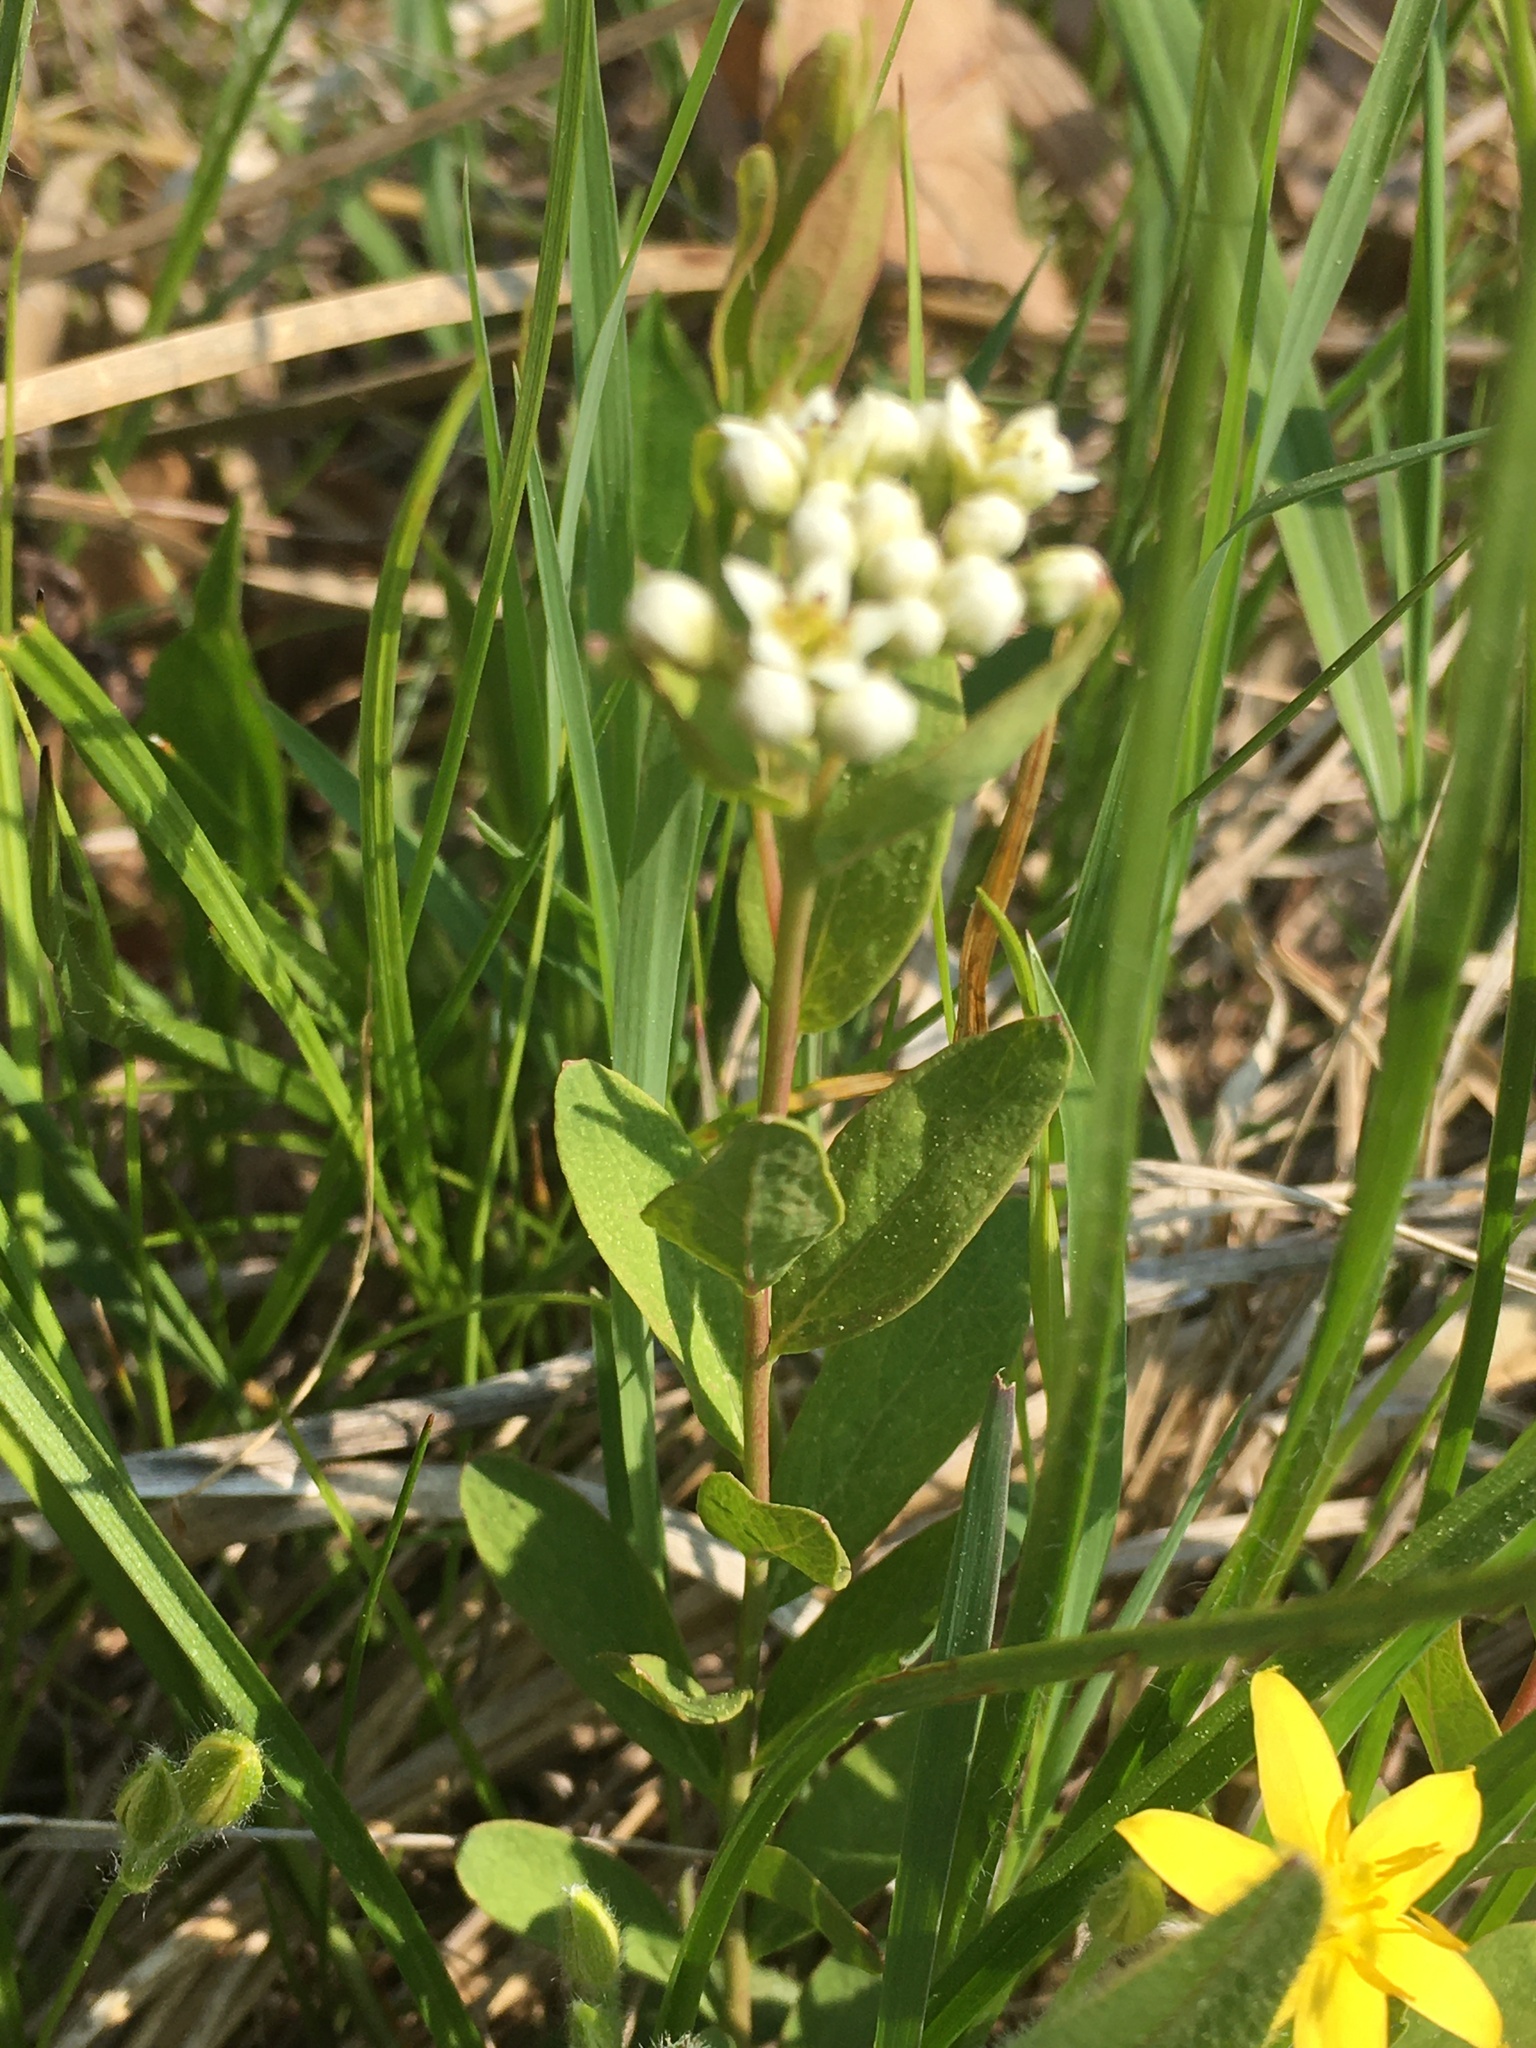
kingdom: Plantae
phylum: Tracheophyta
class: Magnoliopsida
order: Santalales
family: Comandraceae
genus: Comandra
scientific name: Comandra umbellata
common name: Bastard toadflax
